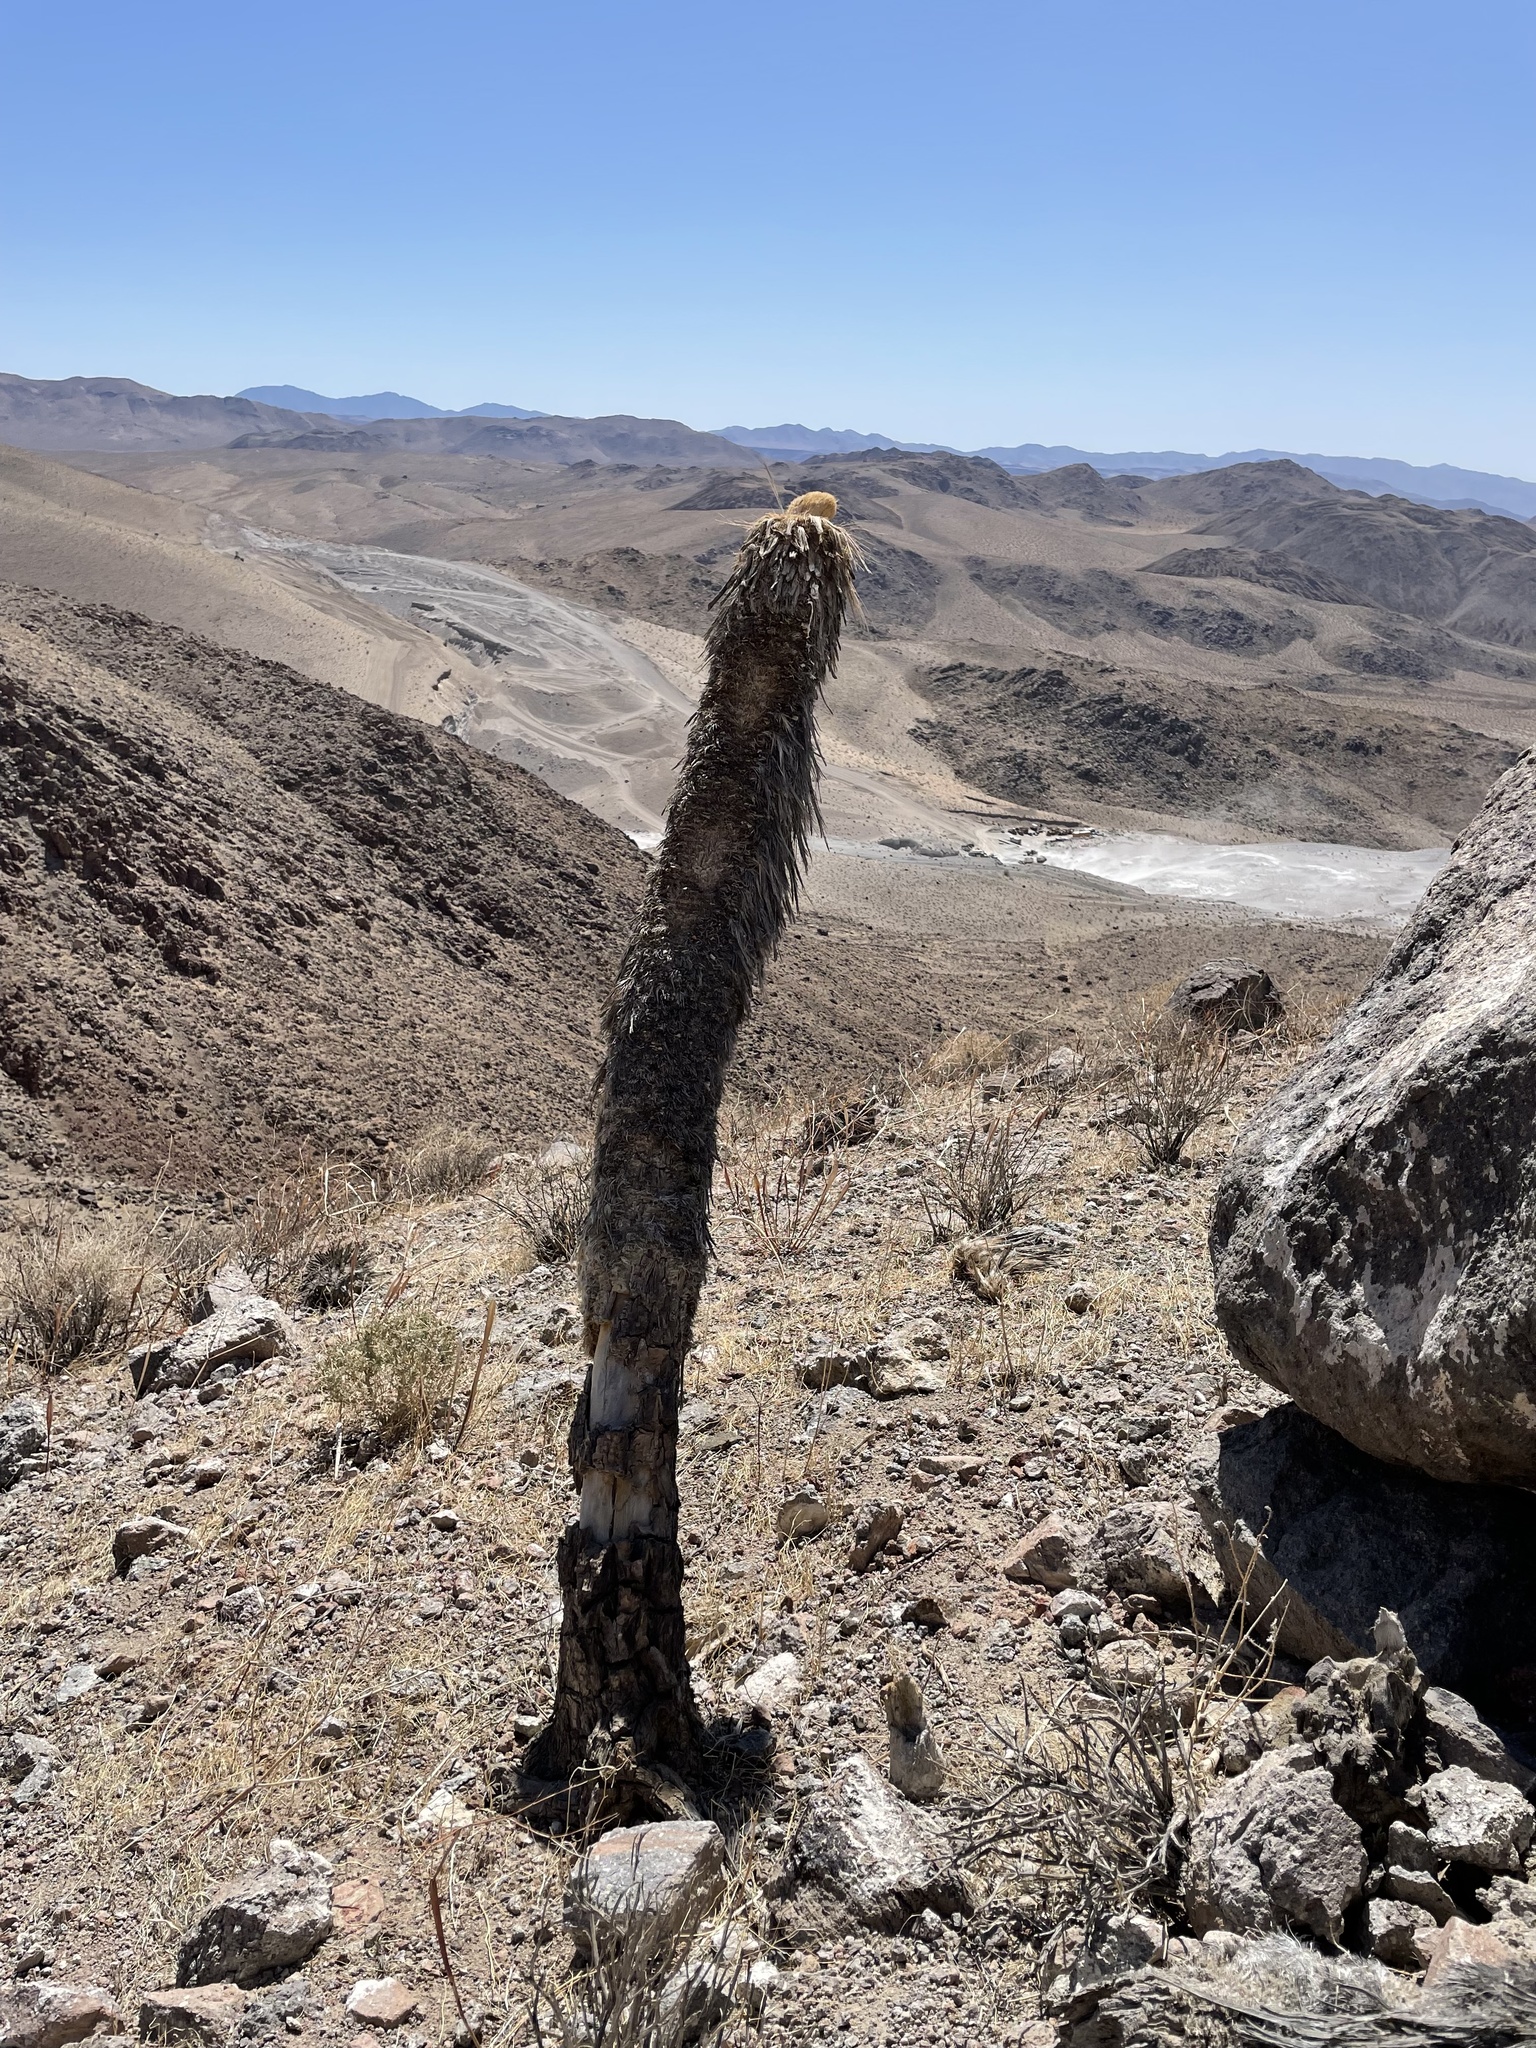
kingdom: Plantae
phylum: Tracheophyta
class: Liliopsida
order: Asparagales
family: Asparagaceae
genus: Yucca
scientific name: Yucca brevifolia
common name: Joshua tree
